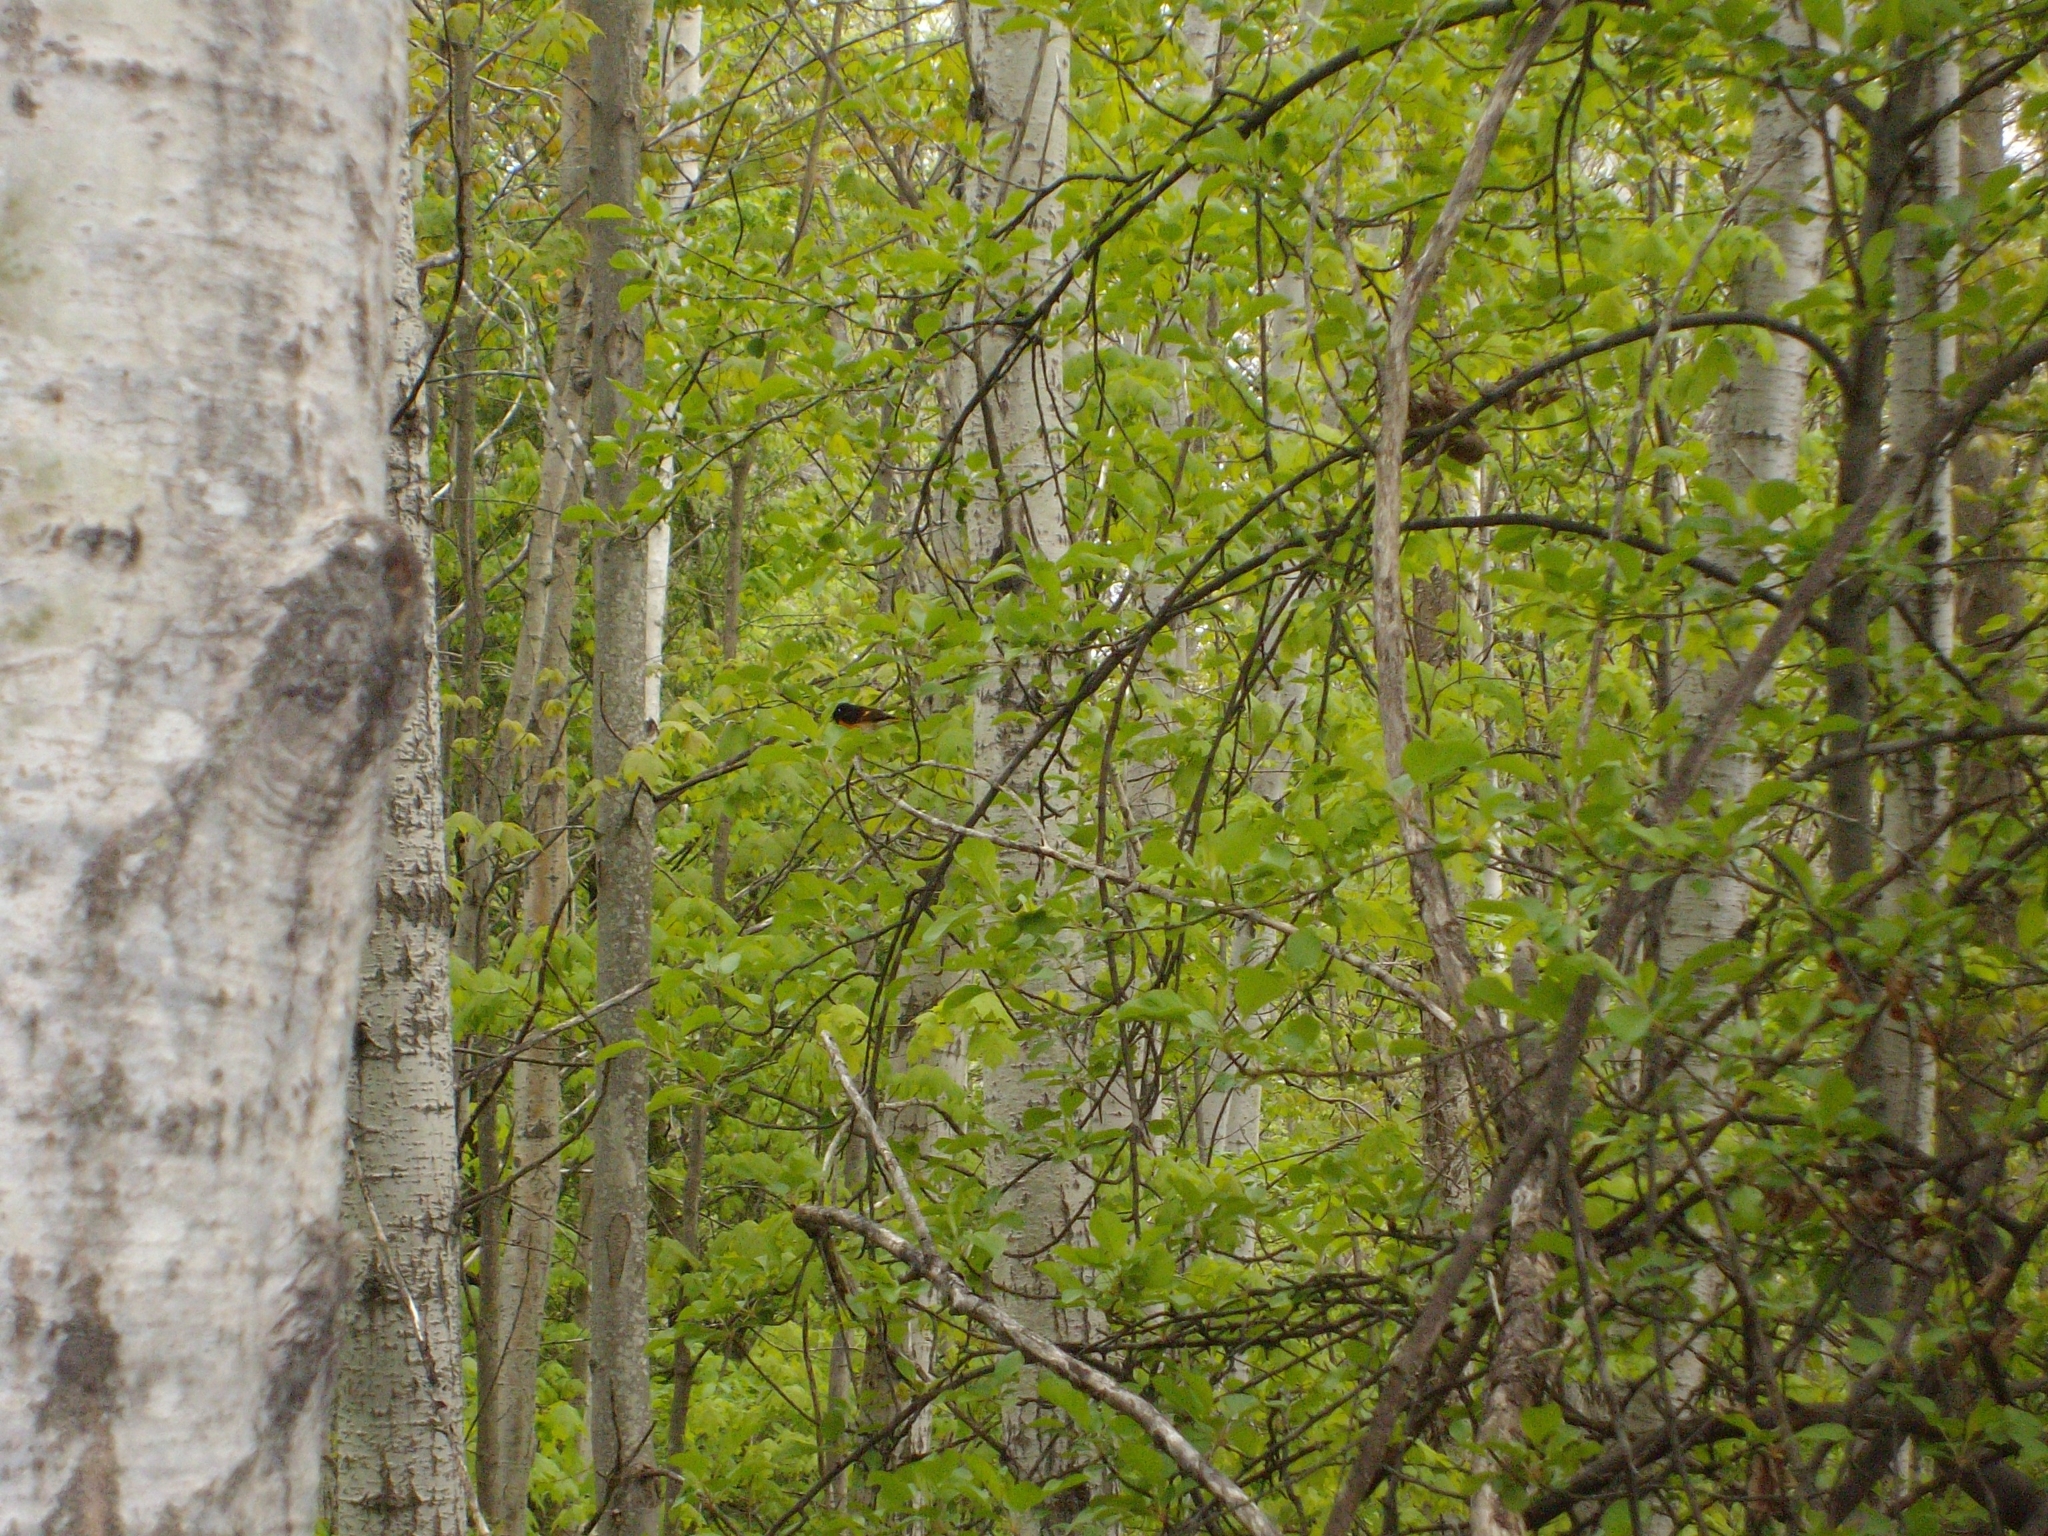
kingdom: Animalia
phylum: Chordata
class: Aves
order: Passeriformes
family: Parulidae
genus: Setophaga
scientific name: Setophaga ruticilla
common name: American redstart
